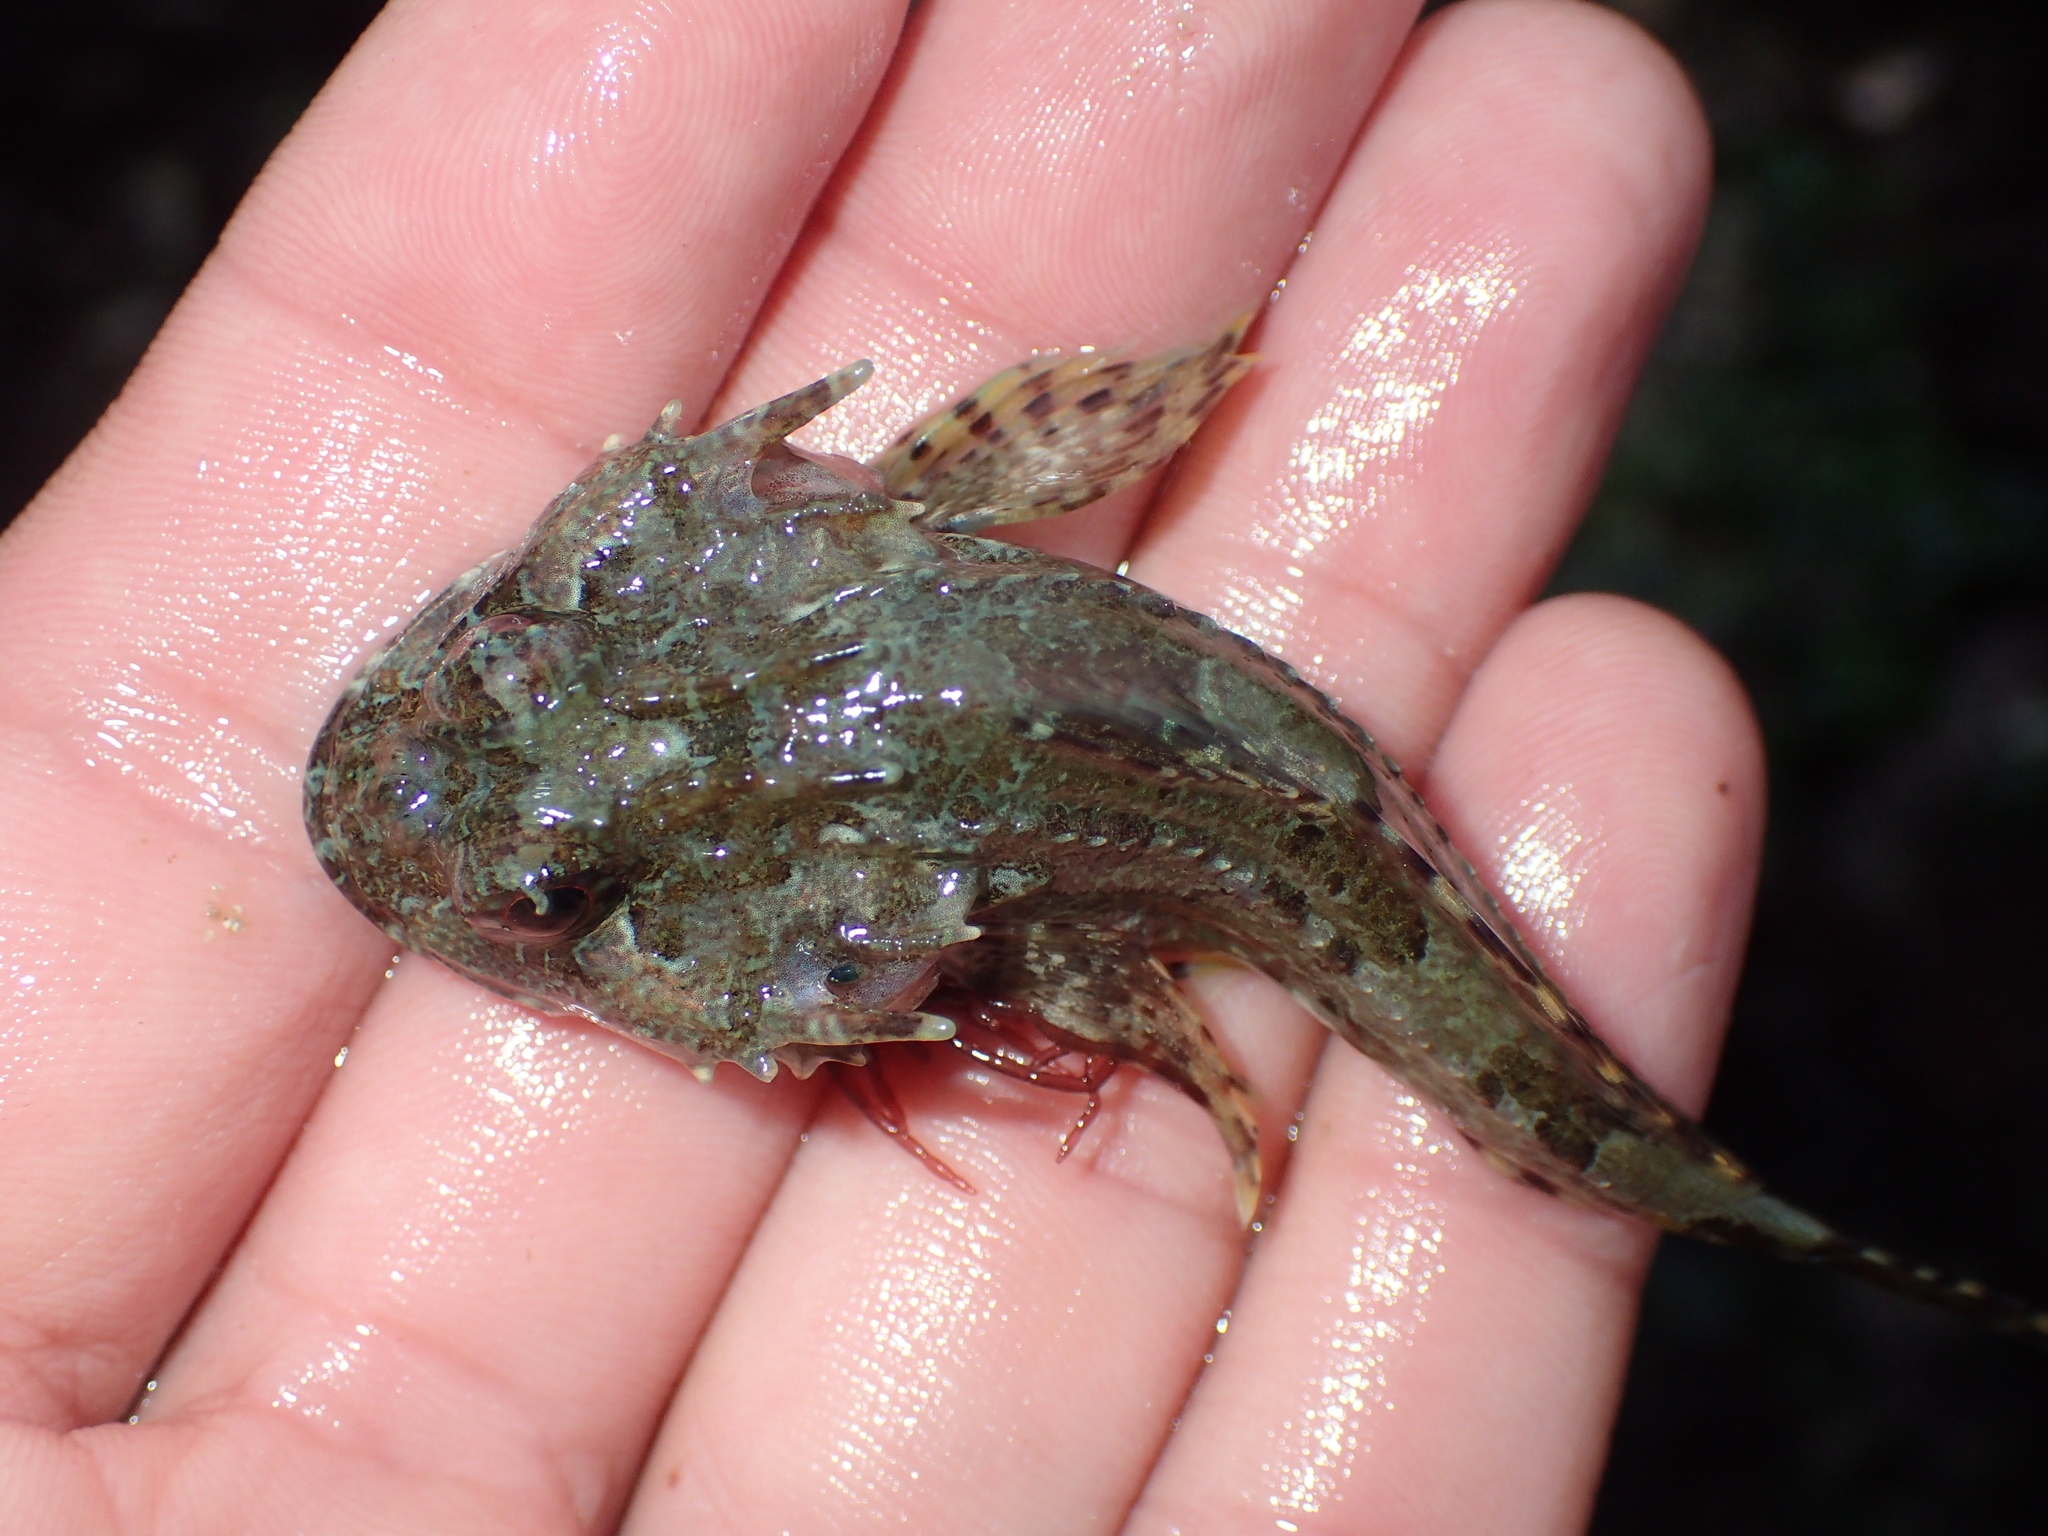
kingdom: Animalia
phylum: Chordata
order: Scorpaeniformes
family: Cottidae
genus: Taurulus
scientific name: Taurulus bubalis
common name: Sea scorpion
